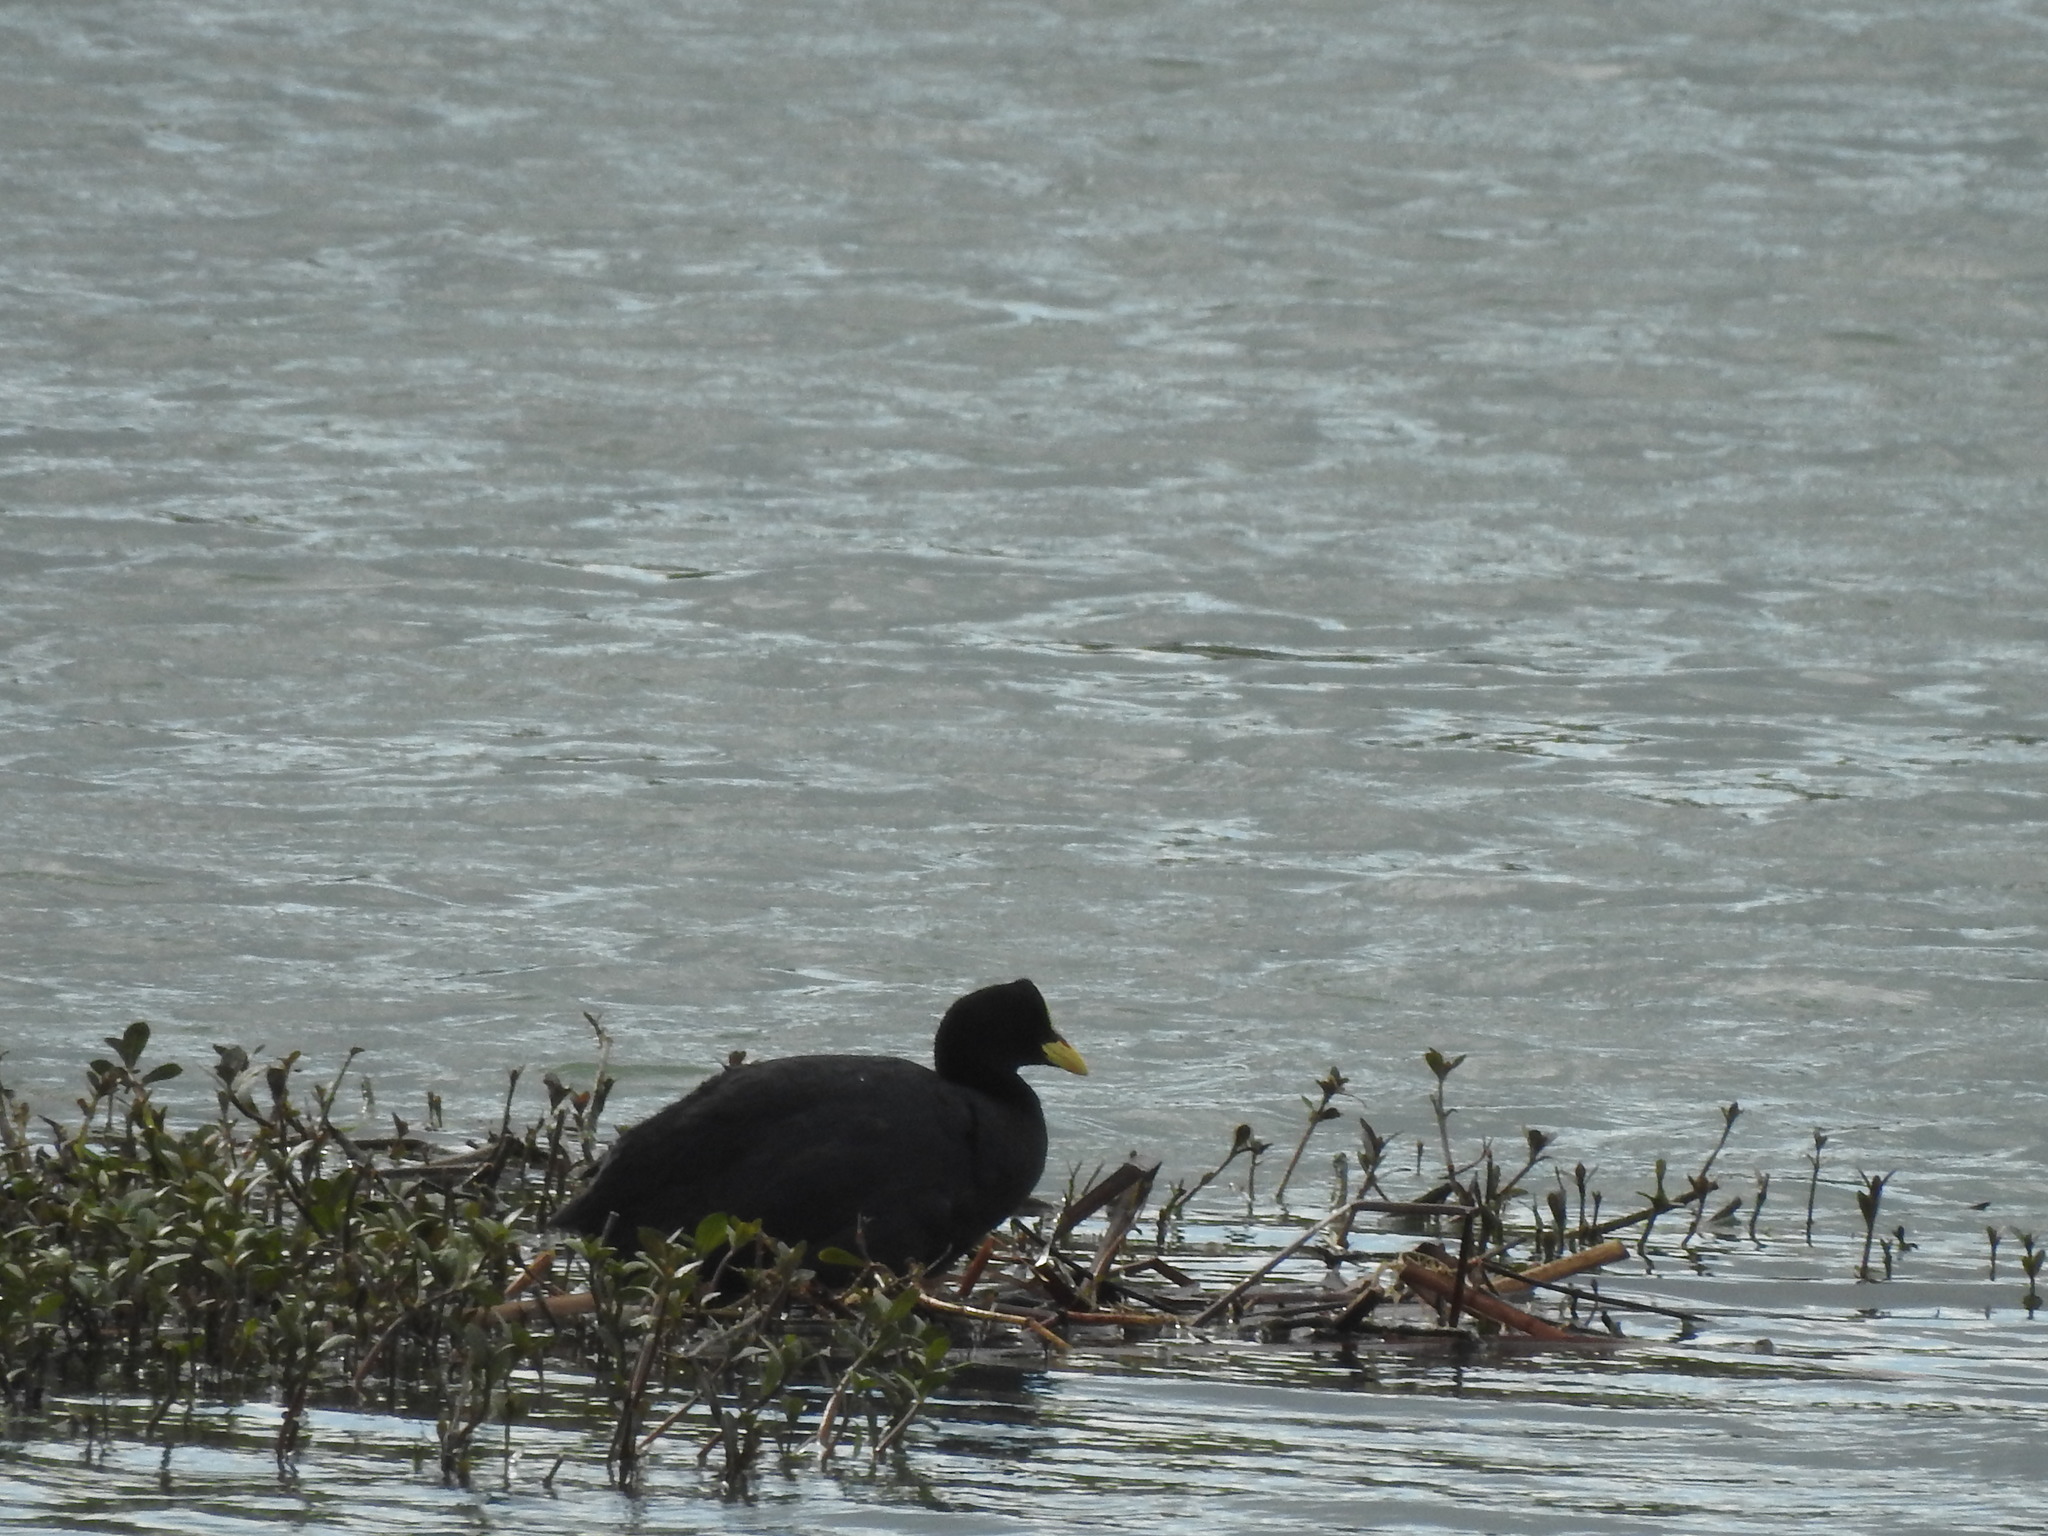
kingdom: Animalia
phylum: Chordata
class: Aves
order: Gruiformes
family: Rallidae
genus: Fulica
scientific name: Fulica armillata
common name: Red-gartered coot
